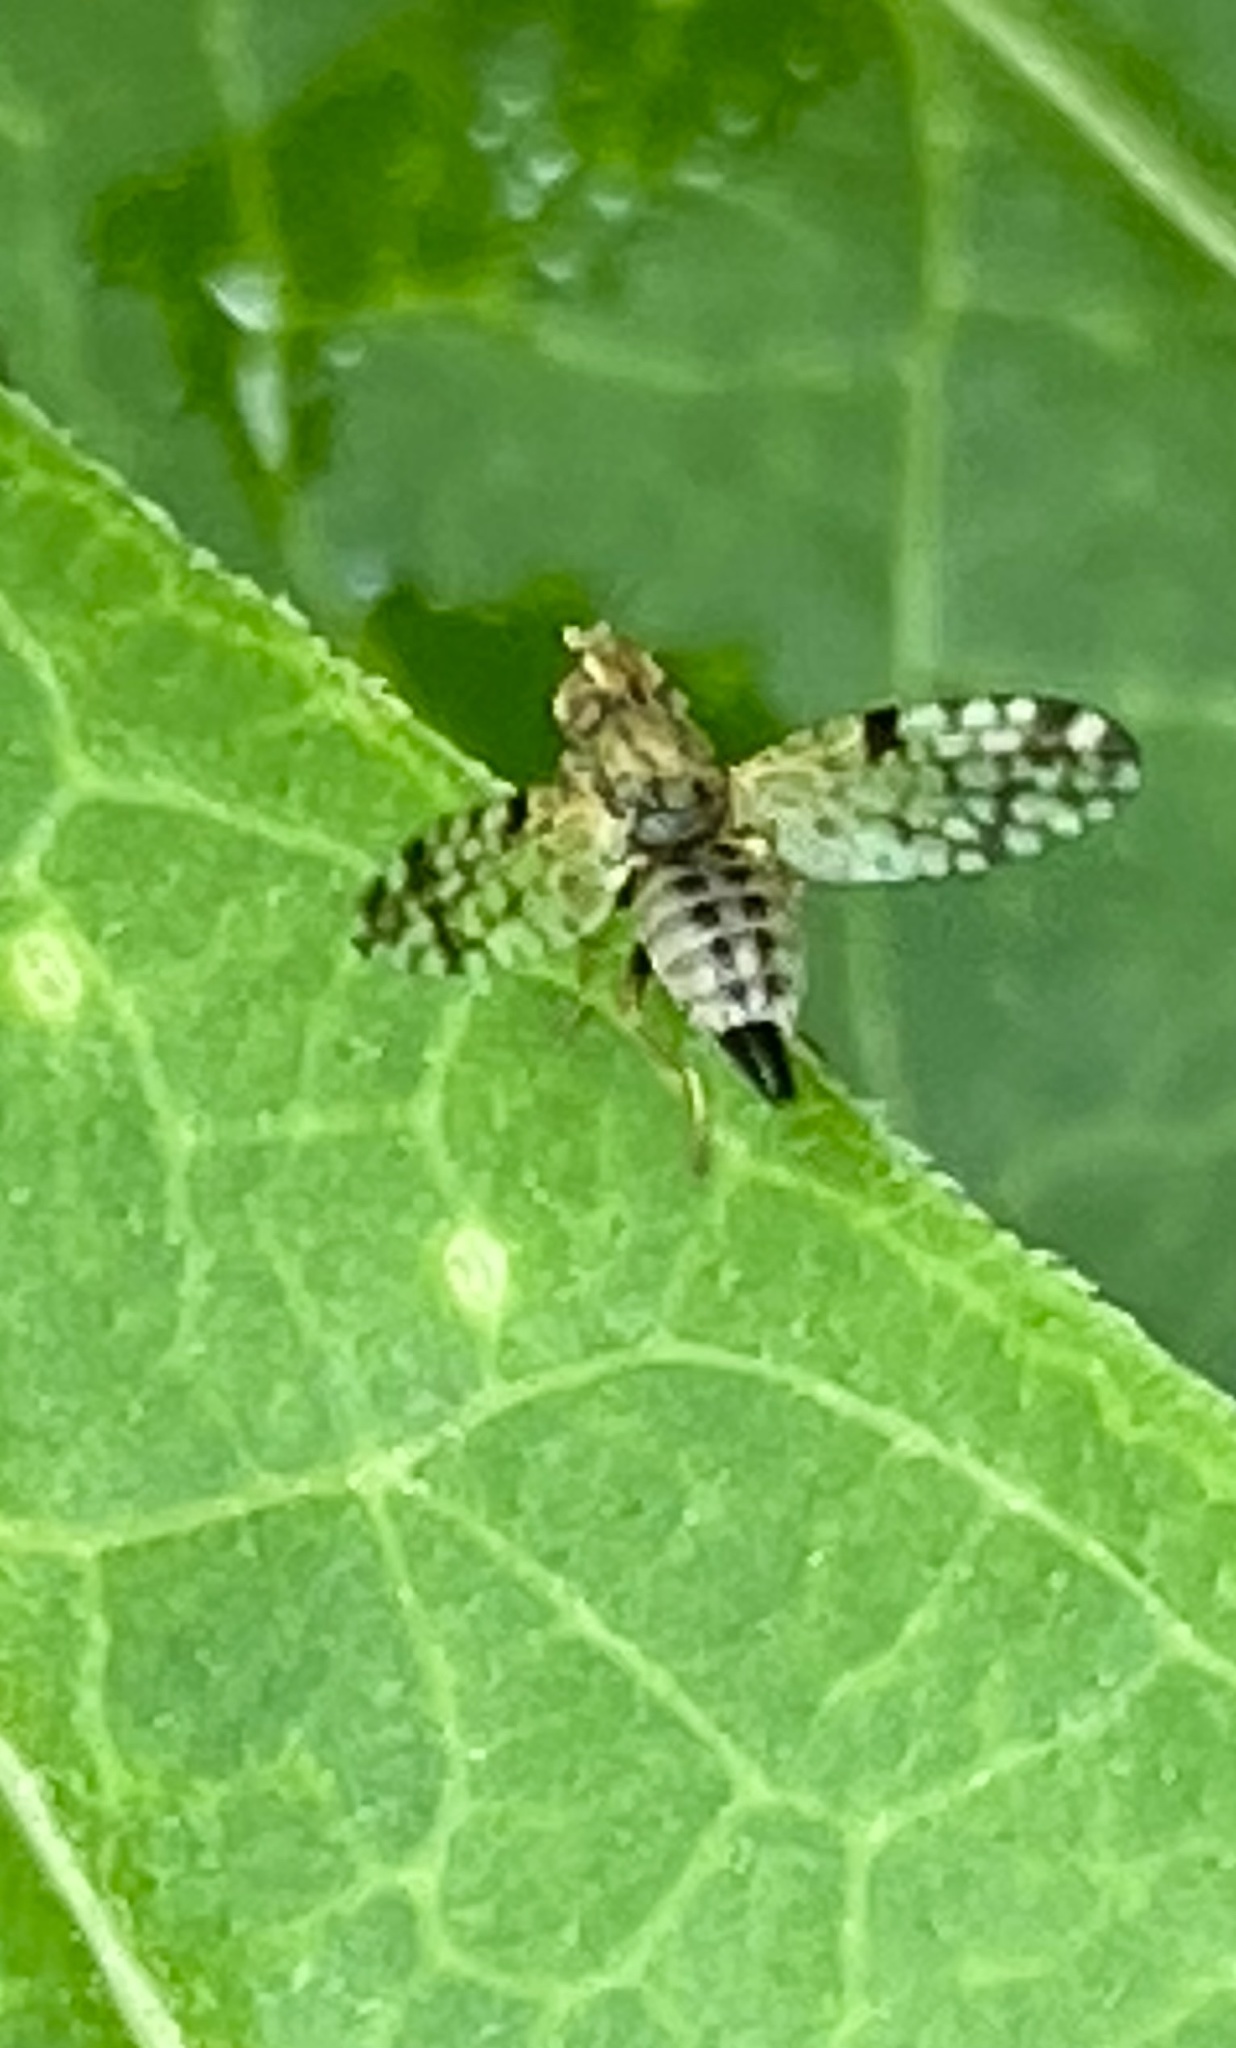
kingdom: Animalia
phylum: Arthropoda
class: Insecta
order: Diptera
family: Tephritidae
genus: Dioxyna
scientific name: Dioxyna picciola
